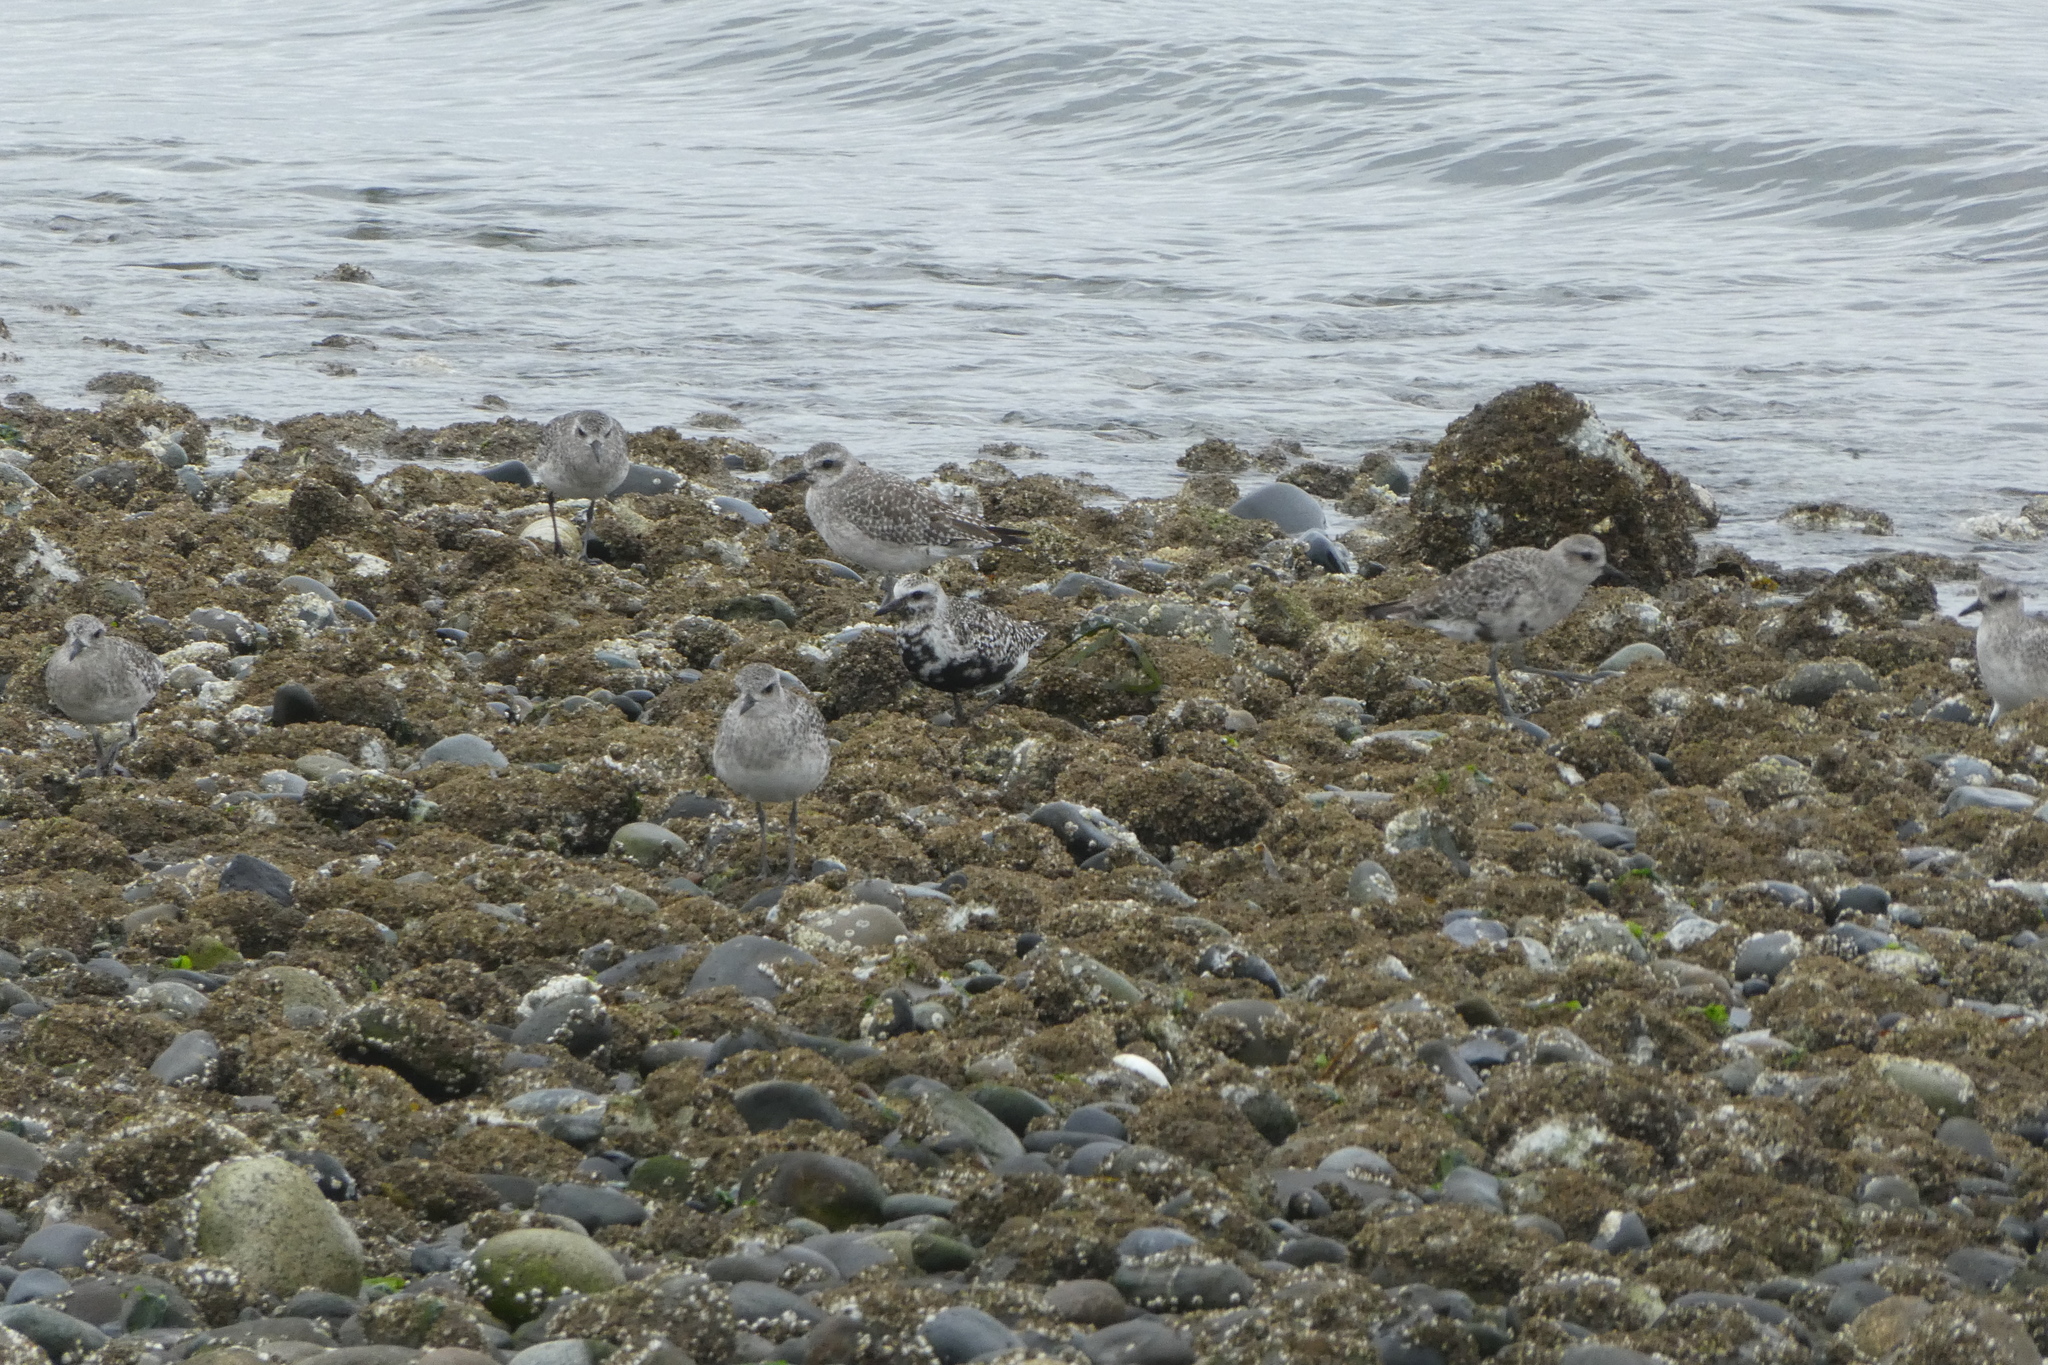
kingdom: Animalia
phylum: Chordata
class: Aves
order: Charadriiformes
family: Charadriidae
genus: Pluvialis
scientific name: Pluvialis squatarola
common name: Grey plover
